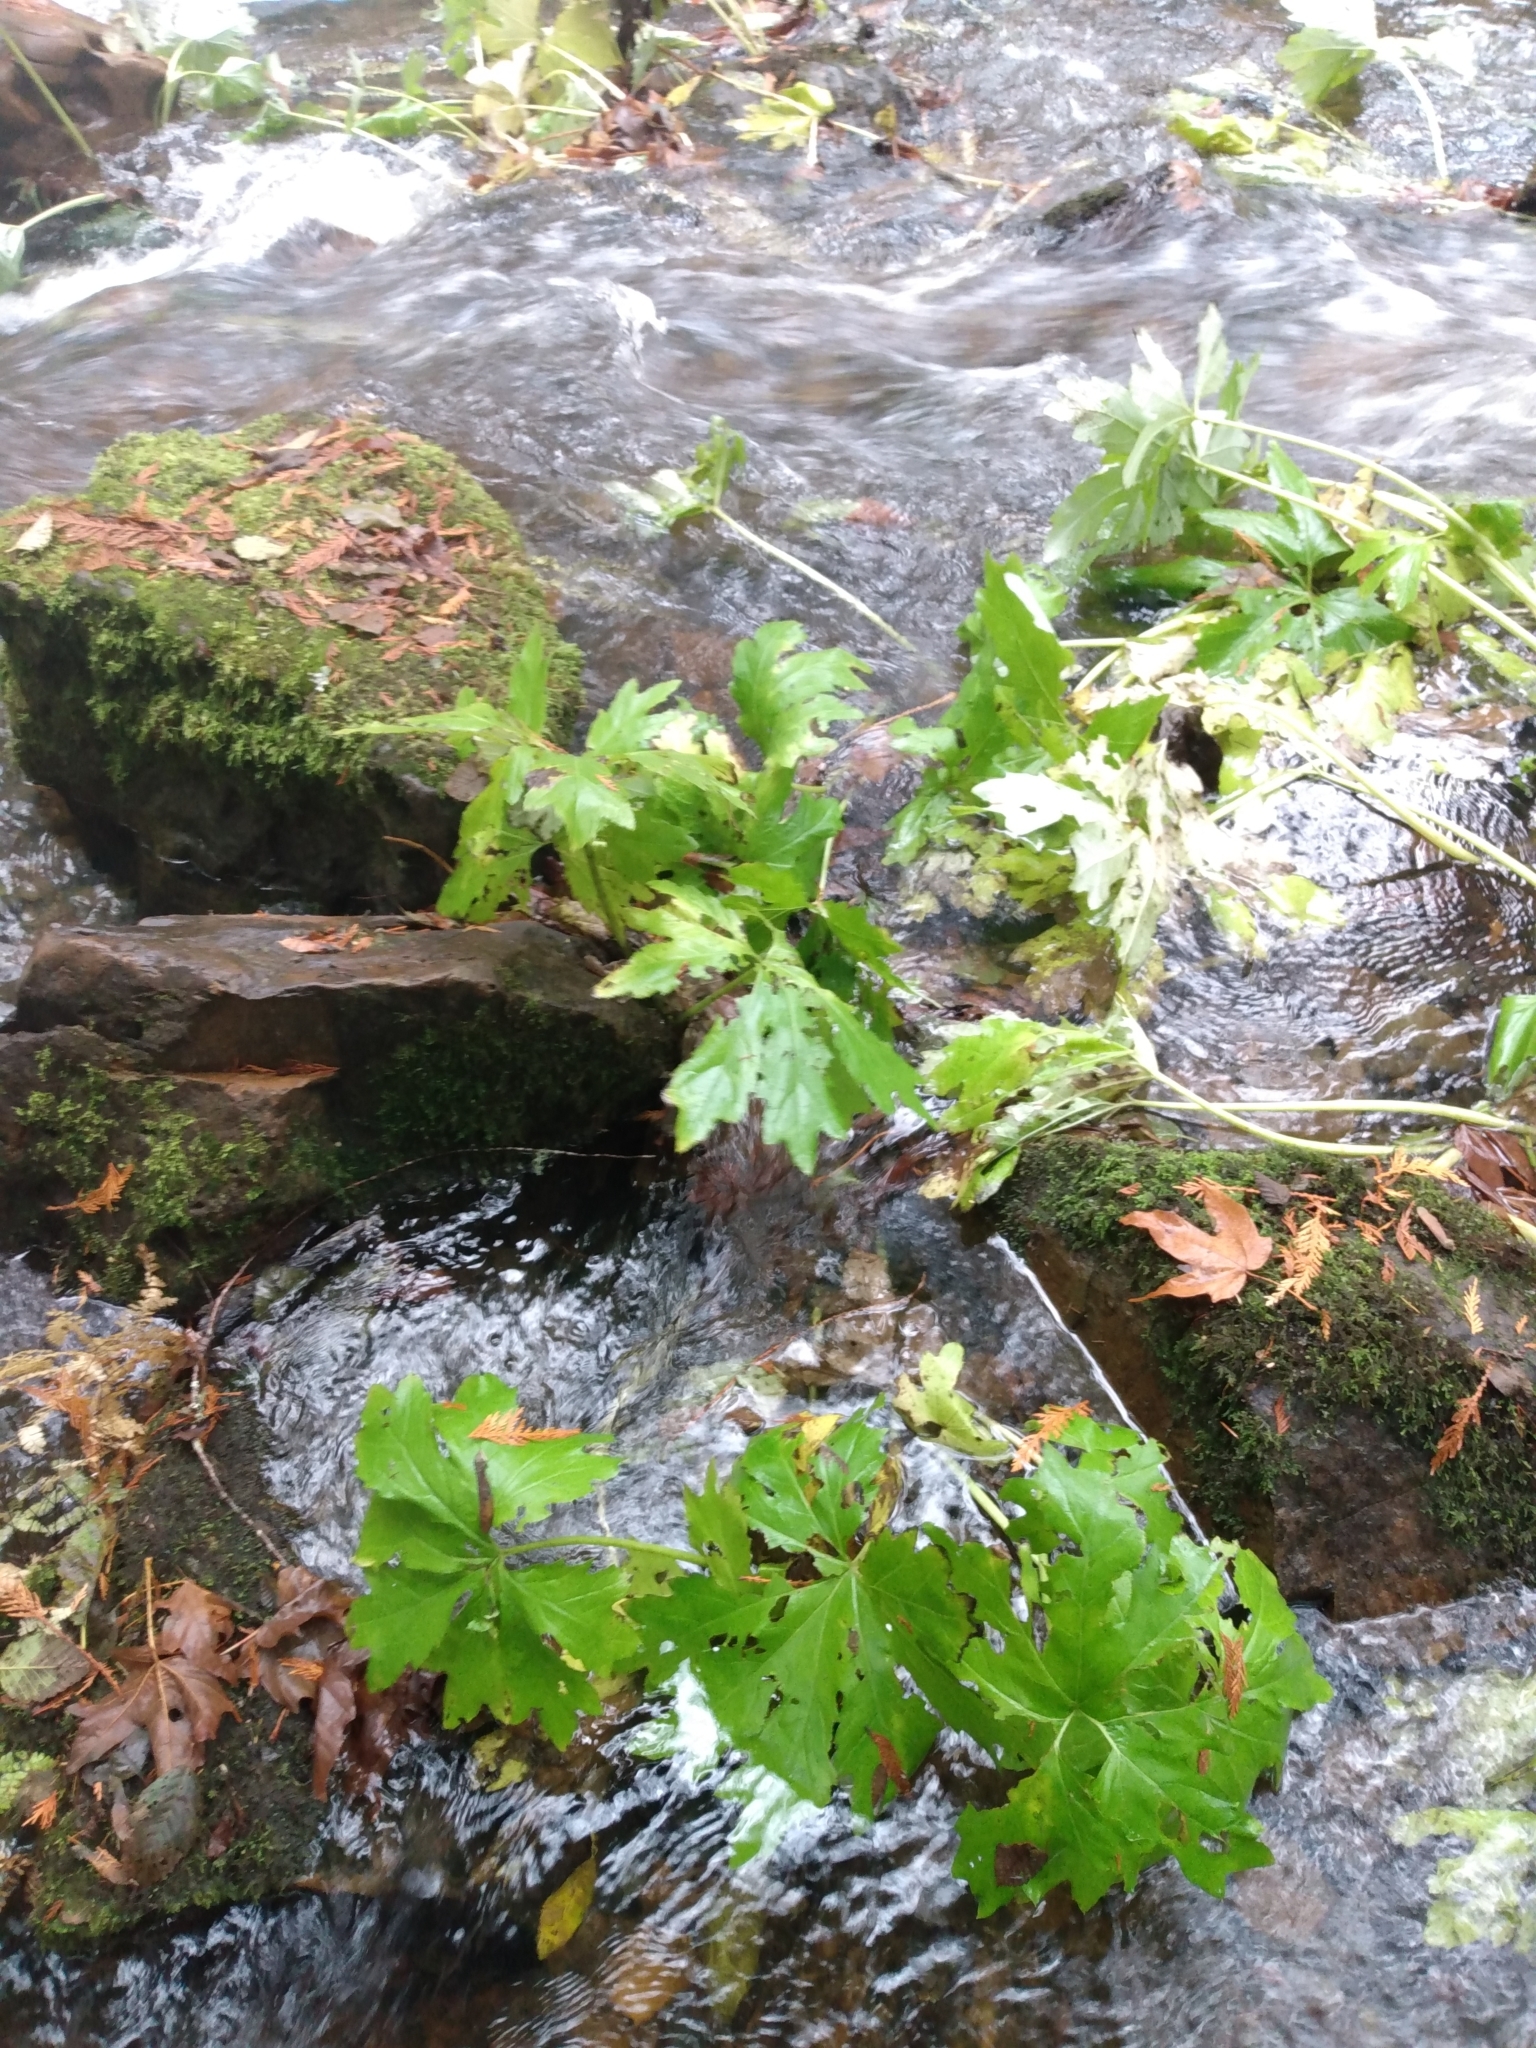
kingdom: Plantae
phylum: Tracheophyta
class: Magnoliopsida
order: Asterales
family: Asteraceae
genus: Petasites
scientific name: Petasites frigidus
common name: Arctic butterbur
